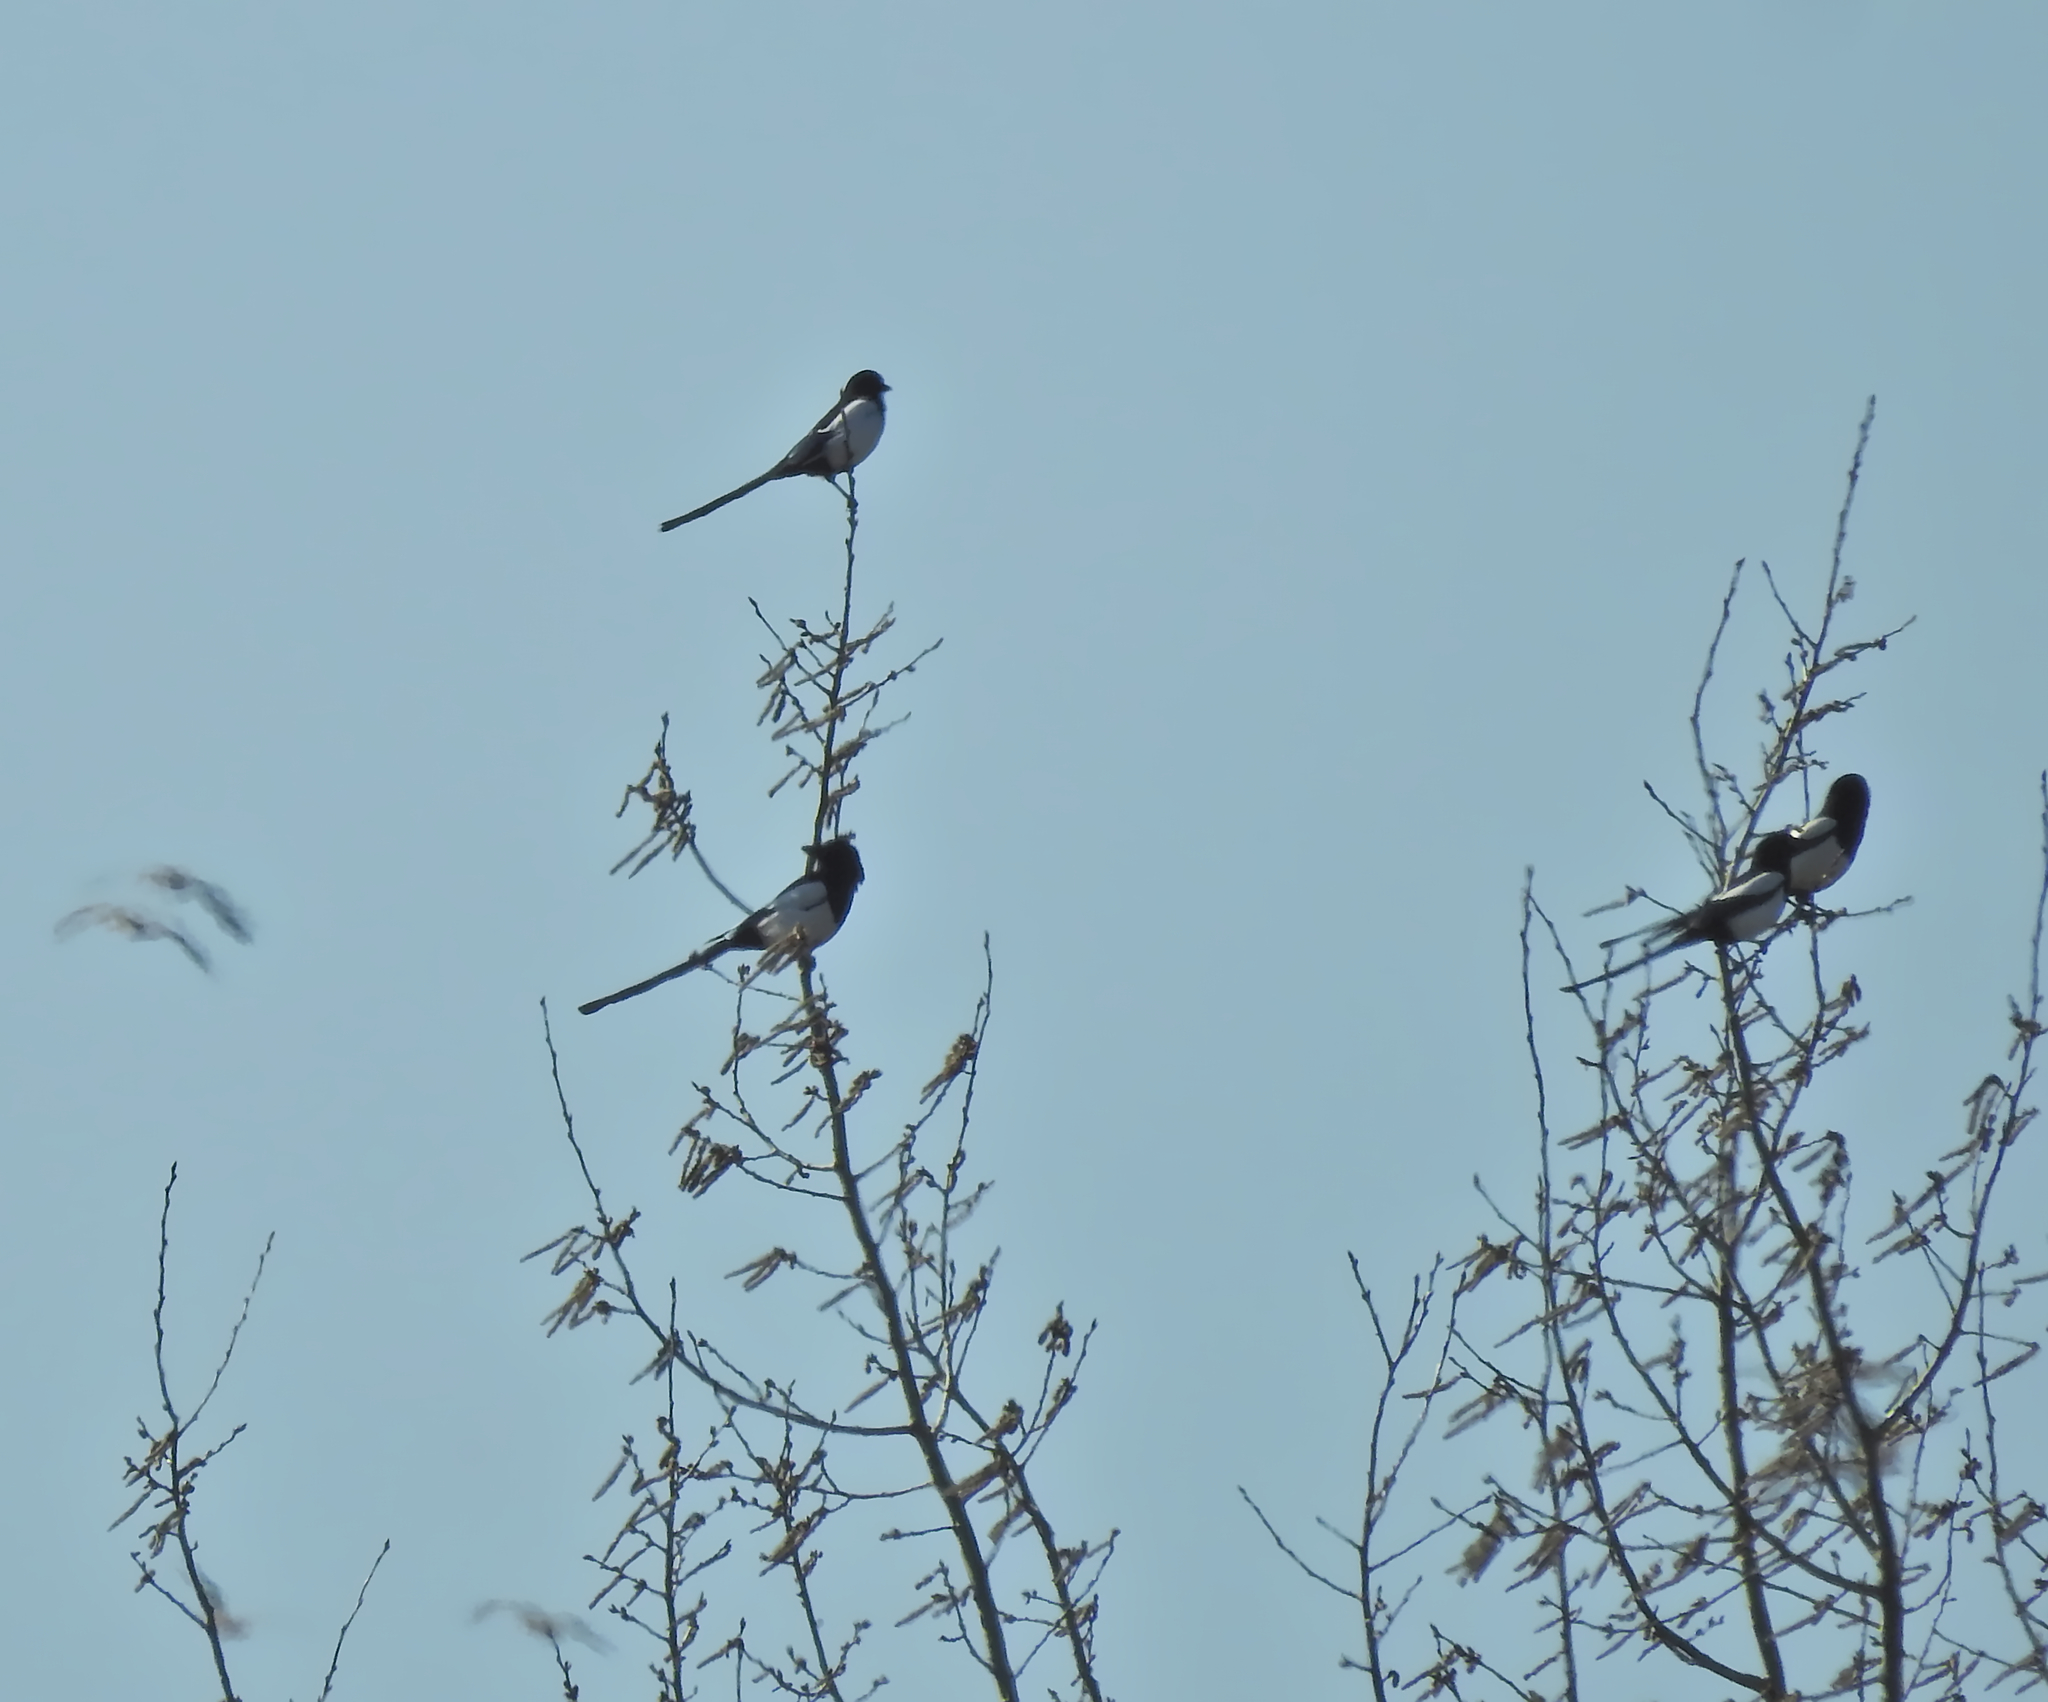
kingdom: Animalia
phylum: Chordata
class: Aves
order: Passeriformes
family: Corvidae
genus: Pica
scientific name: Pica pica
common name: Eurasian magpie
